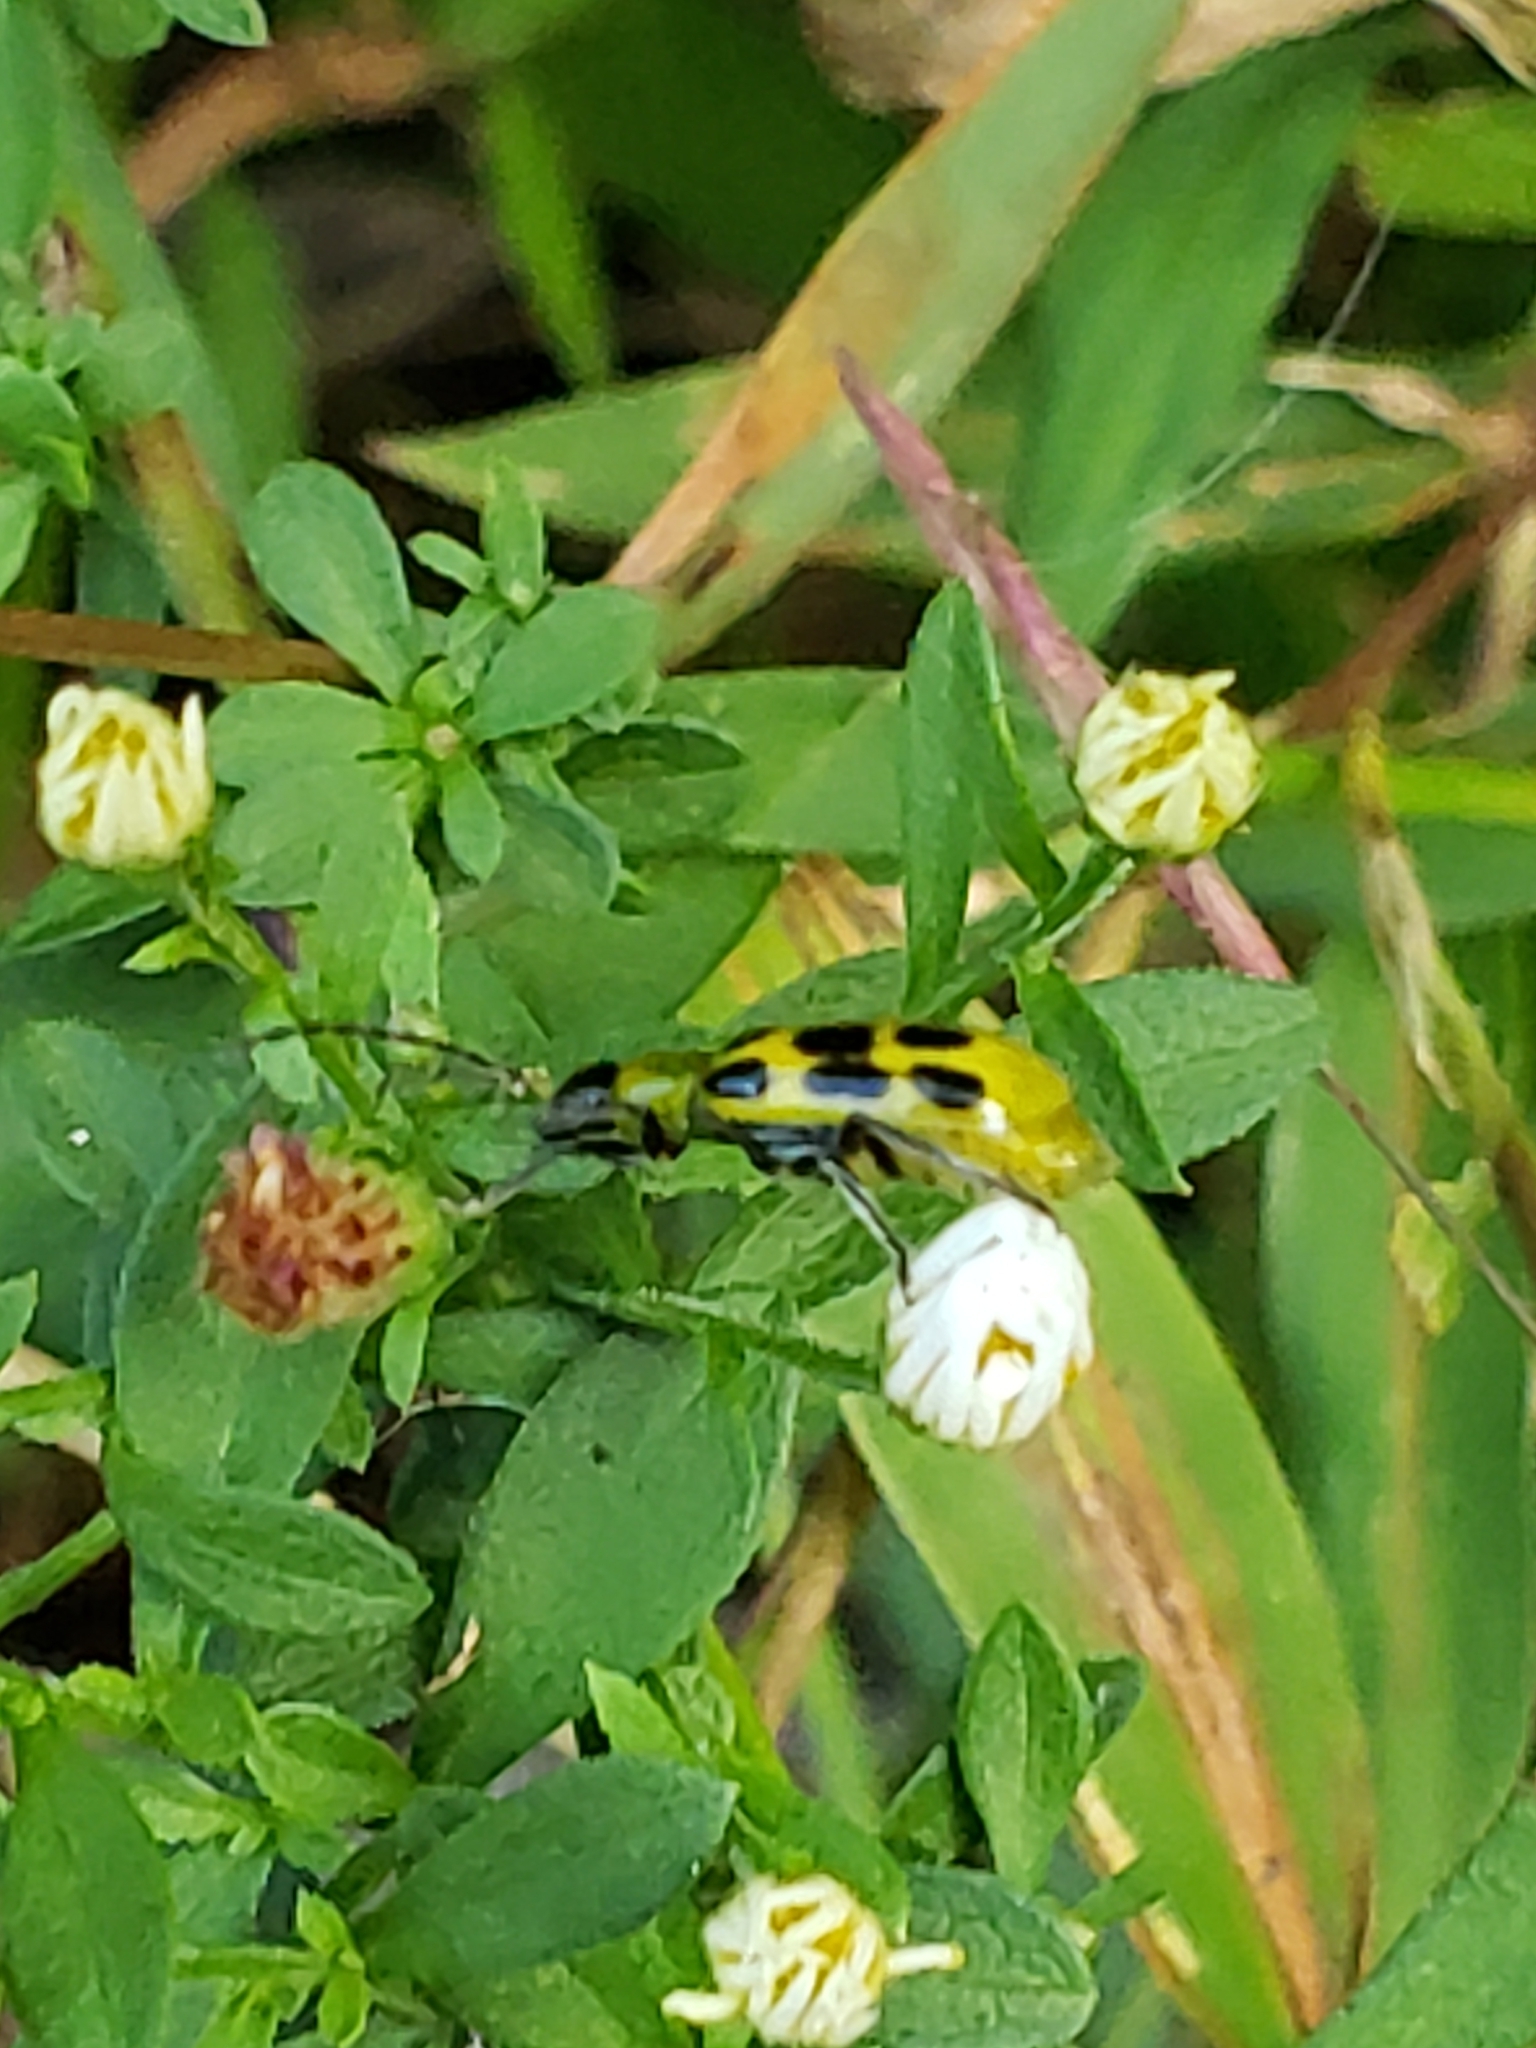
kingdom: Animalia
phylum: Arthropoda
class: Insecta
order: Coleoptera
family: Chrysomelidae
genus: Diabrotica
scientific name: Diabrotica undecimpunctata
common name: Spotted cucumber beetle
